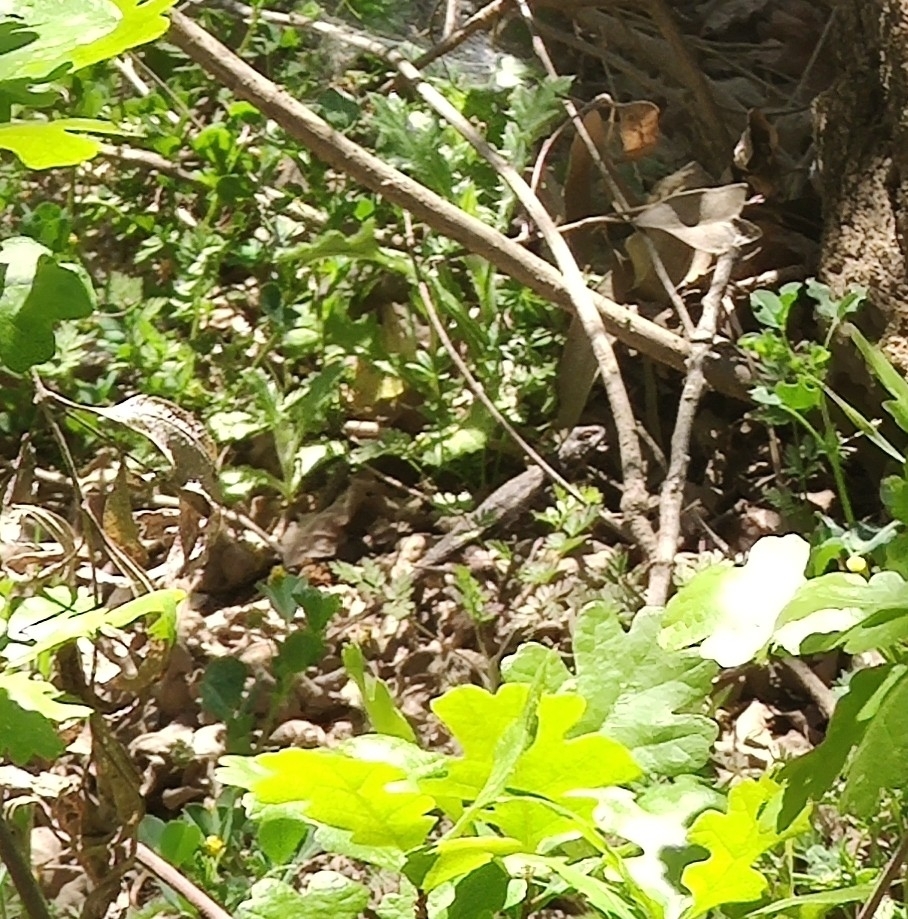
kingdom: Animalia
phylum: Chordata
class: Squamata
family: Phrynosomatidae
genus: Sceloporus
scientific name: Sceloporus occidentalis
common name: Western fence lizard
